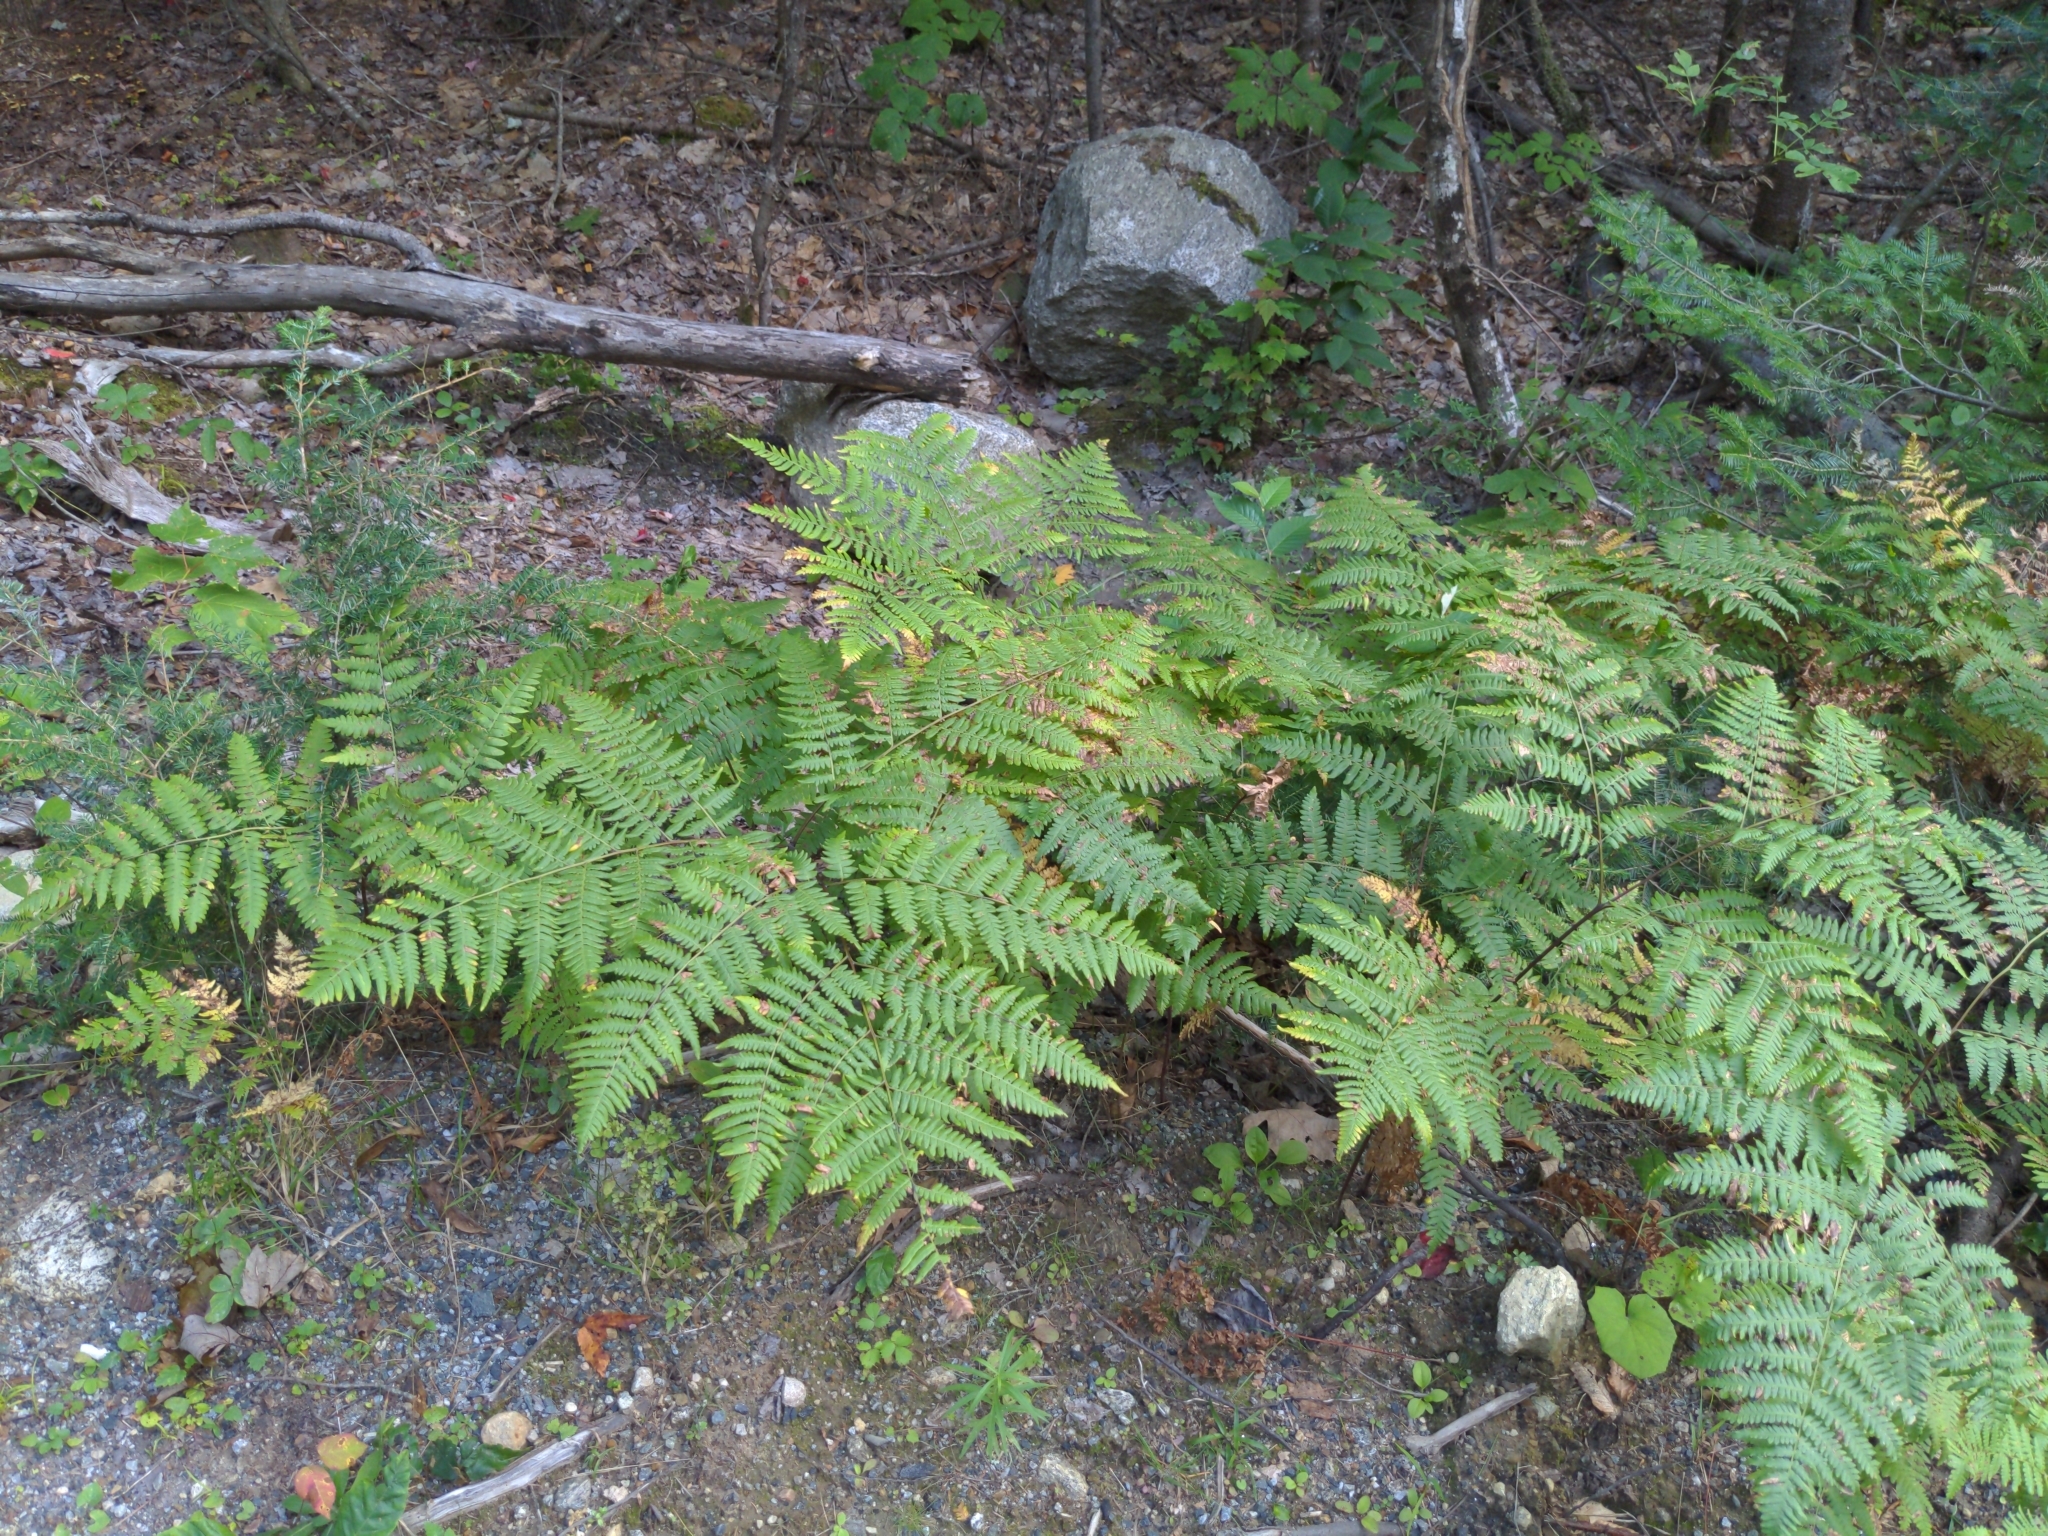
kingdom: Plantae
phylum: Tracheophyta
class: Polypodiopsida
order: Polypodiales
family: Dennstaedtiaceae
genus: Pteridium
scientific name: Pteridium aquilinum
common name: Bracken
